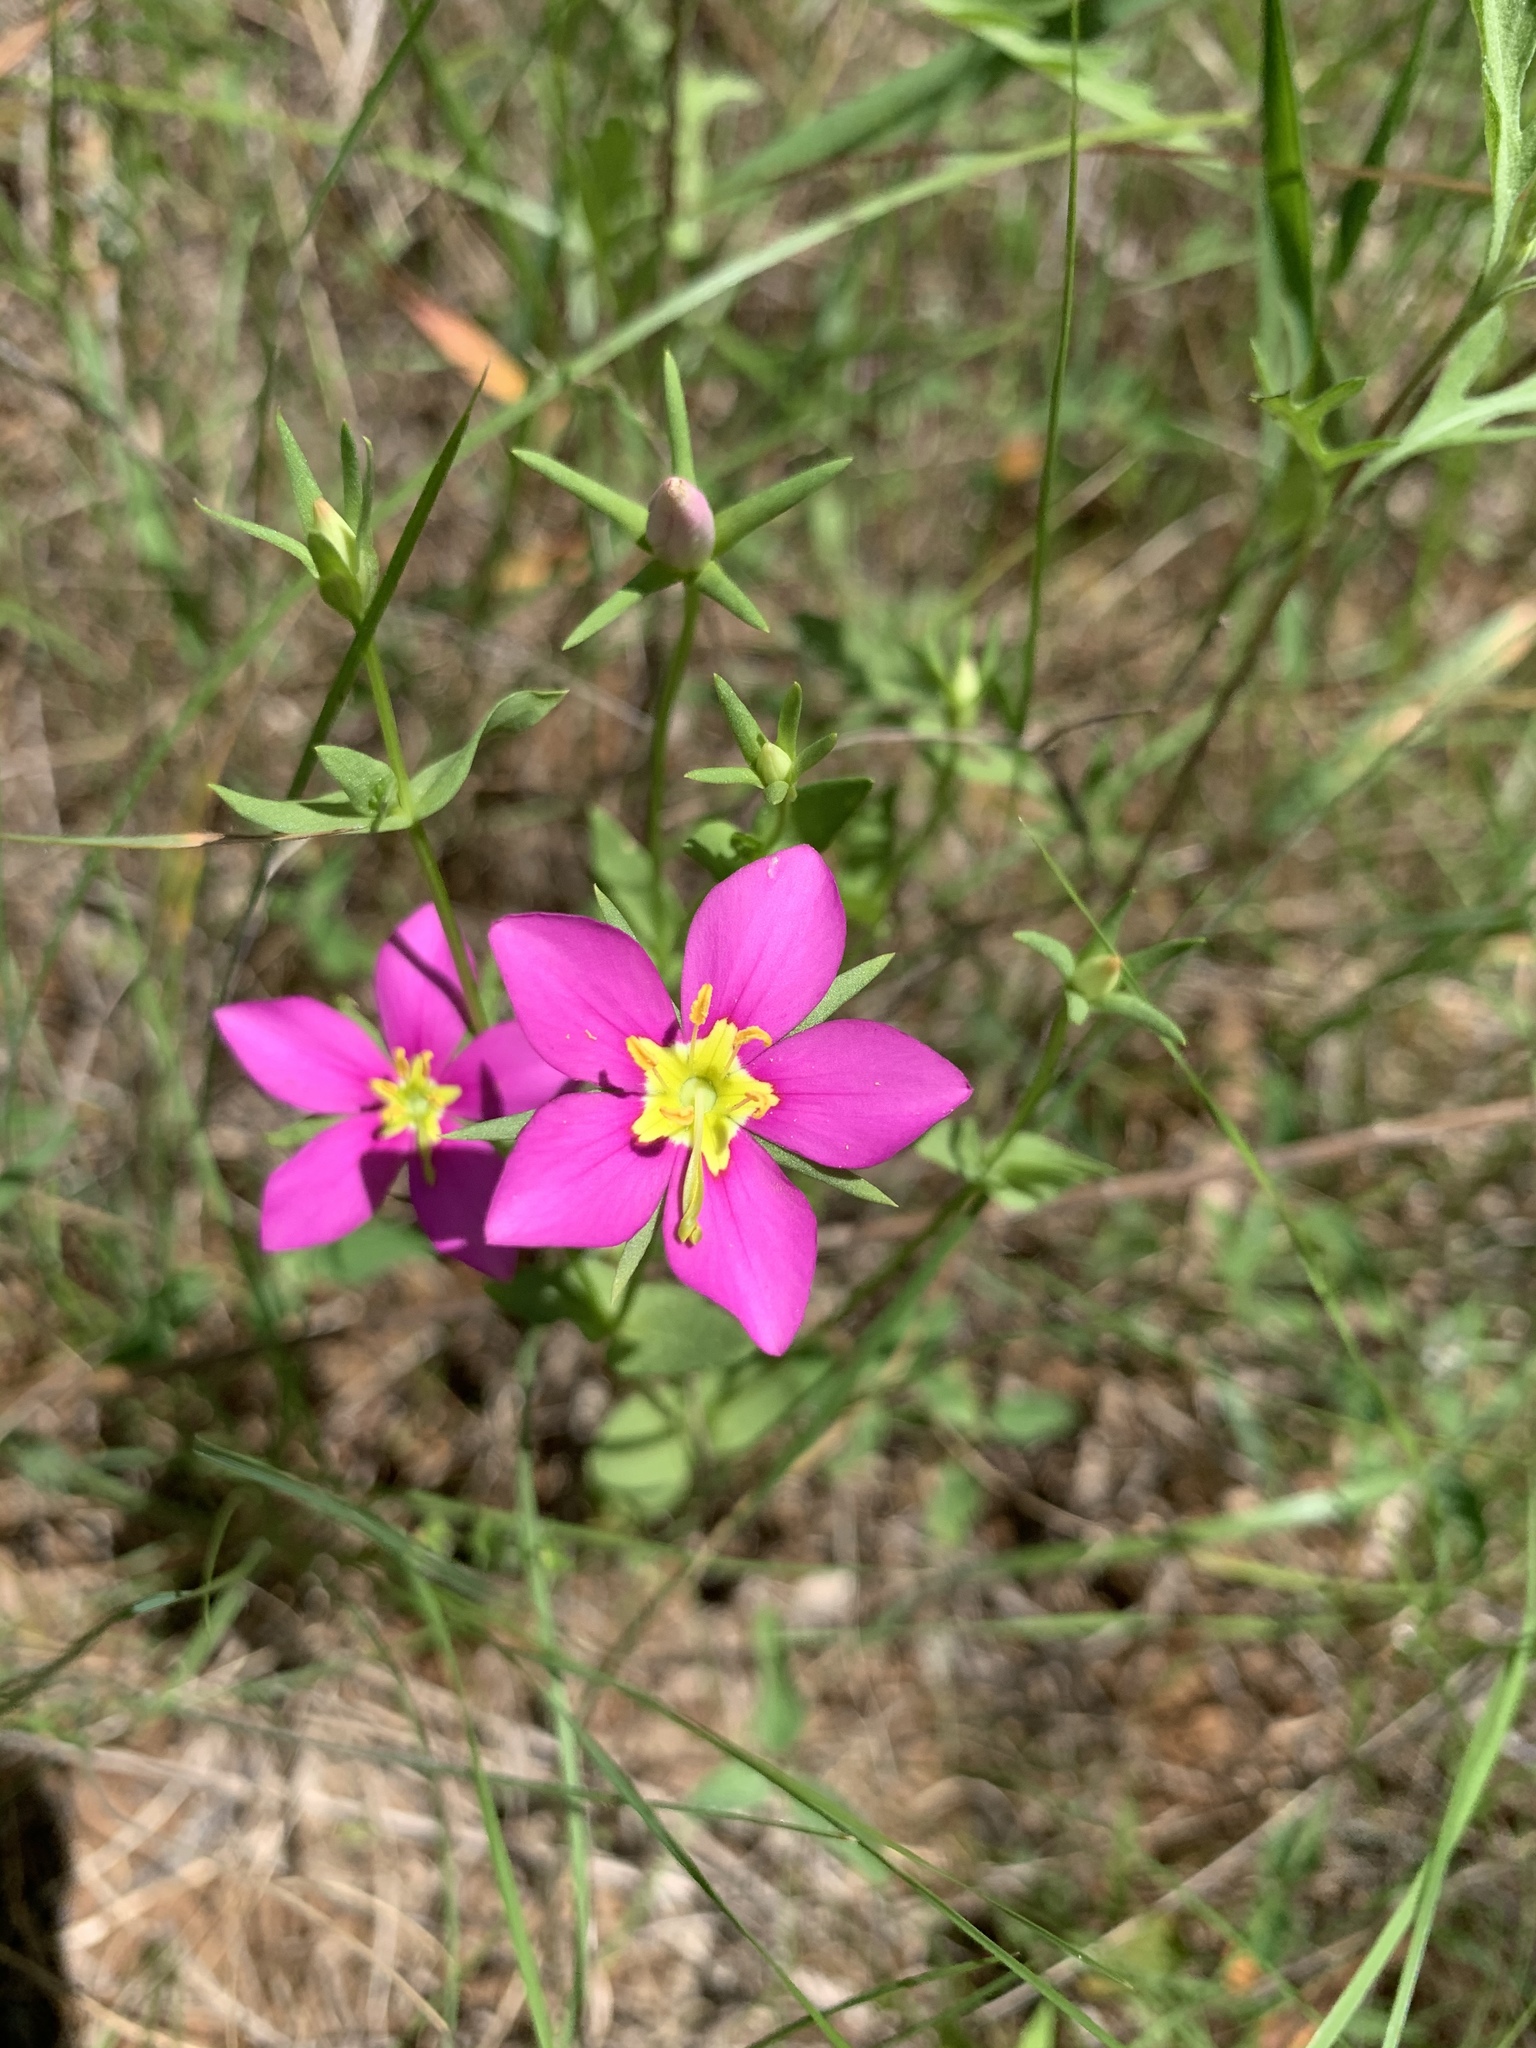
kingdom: Plantae
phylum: Tracheophyta
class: Magnoliopsida
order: Gentianales
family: Gentianaceae
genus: Sabatia
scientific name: Sabatia campestris
